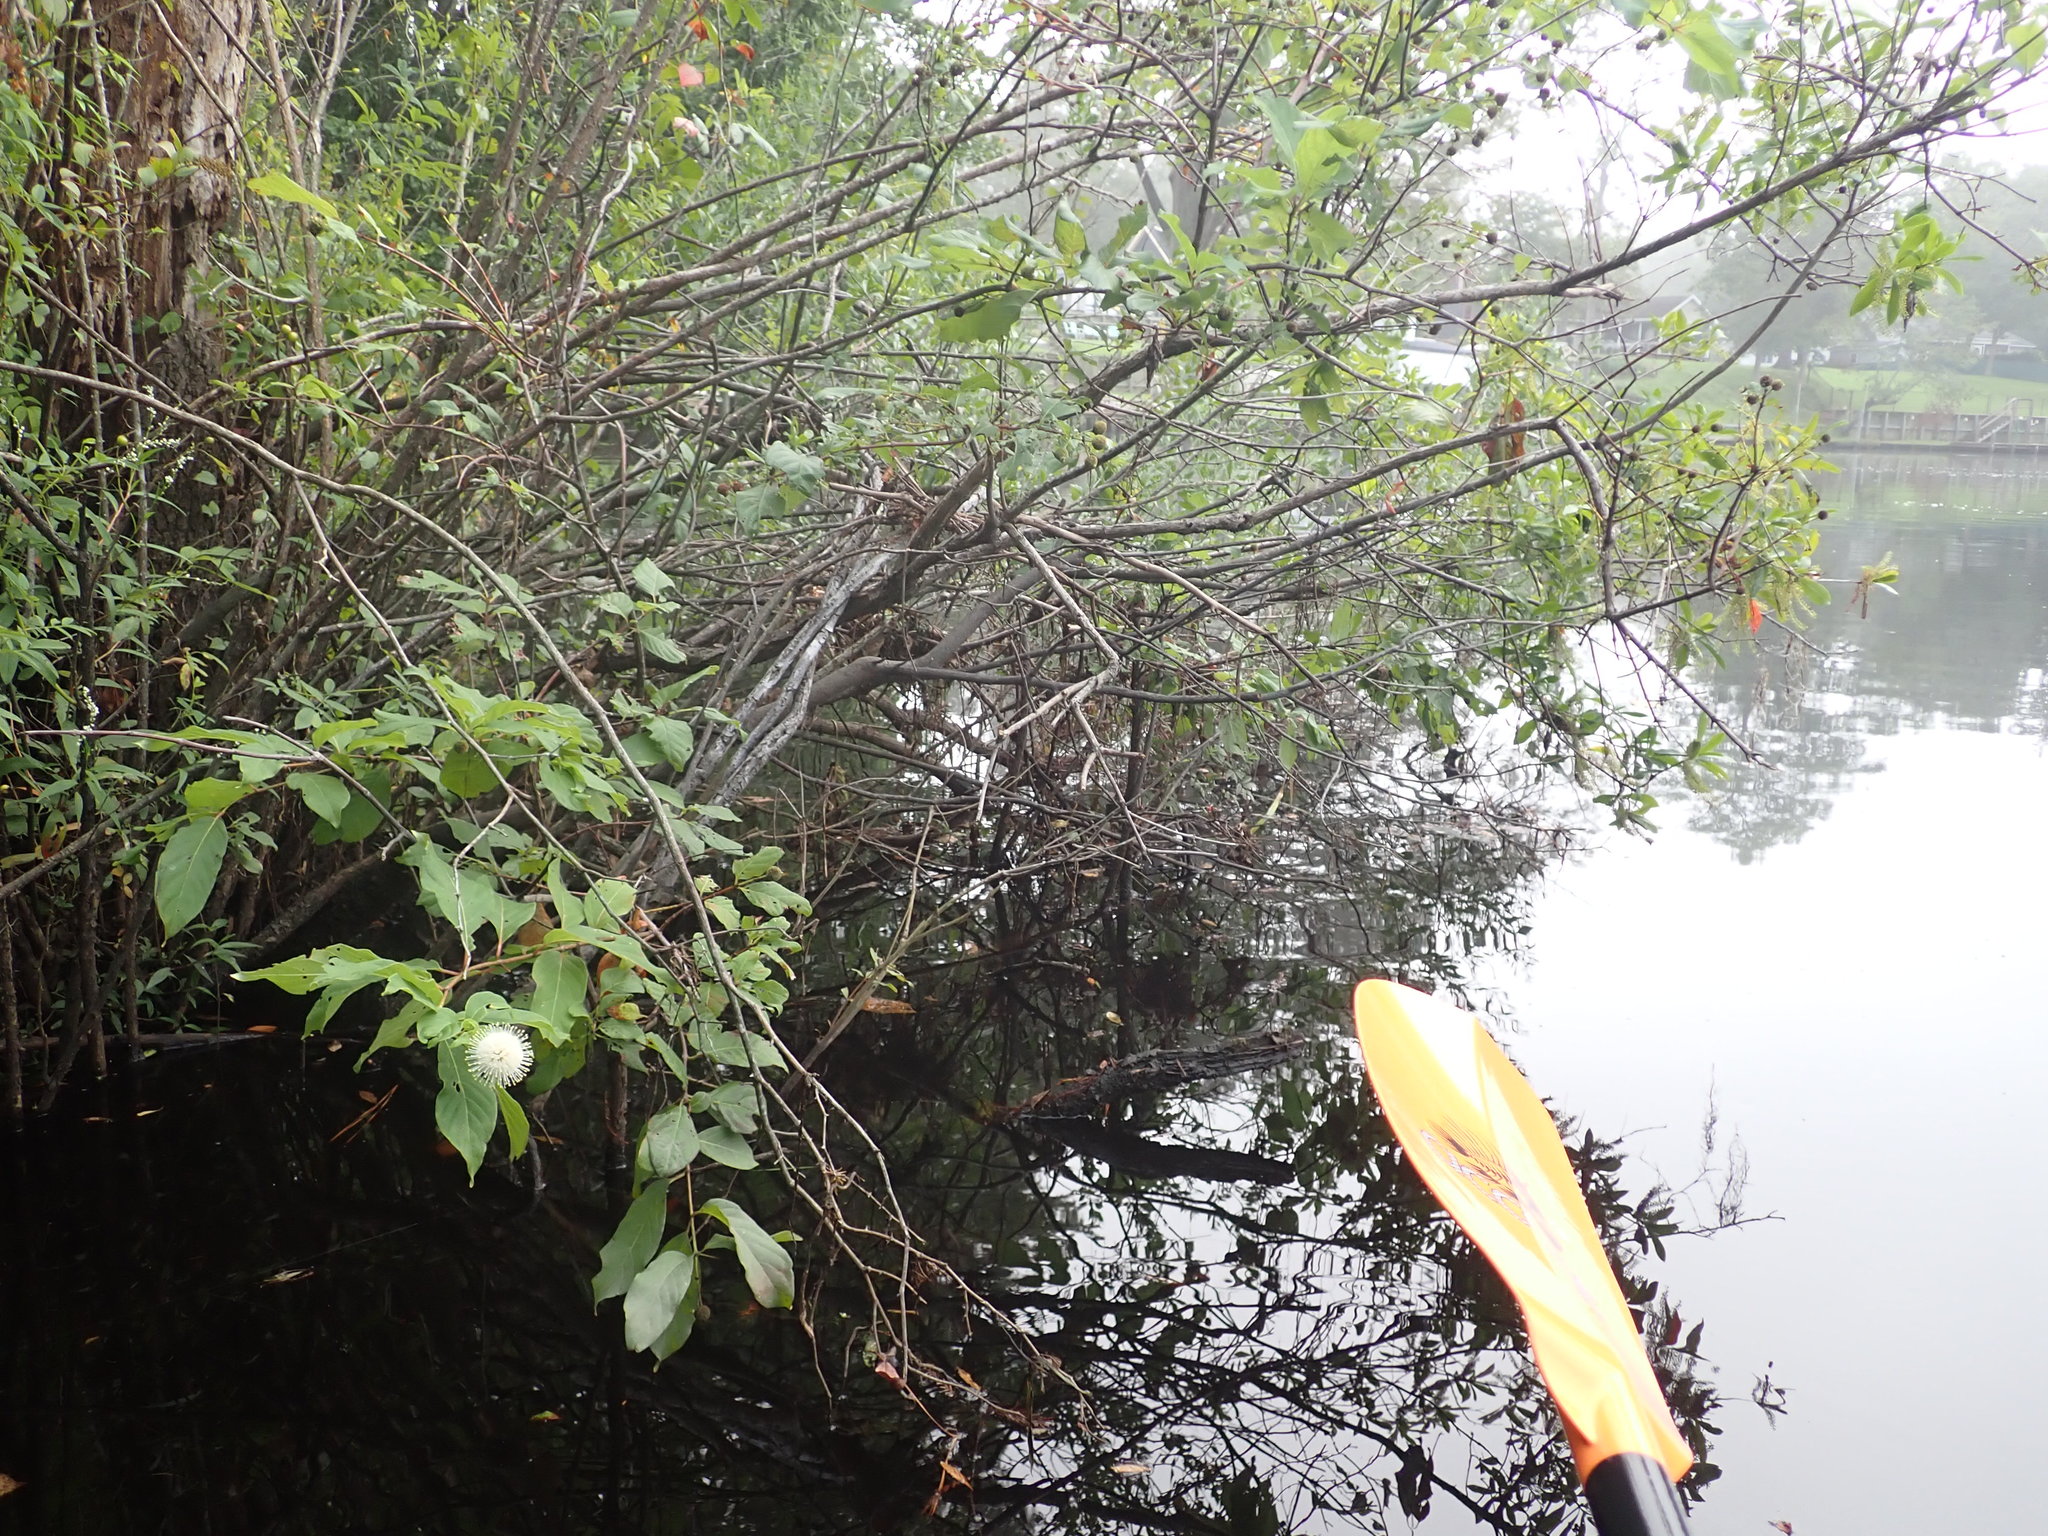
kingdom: Plantae
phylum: Tracheophyta
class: Magnoliopsida
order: Gentianales
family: Rubiaceae
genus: Cephalanthus
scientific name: Cephalanthus occidentalis
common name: Button-willow
